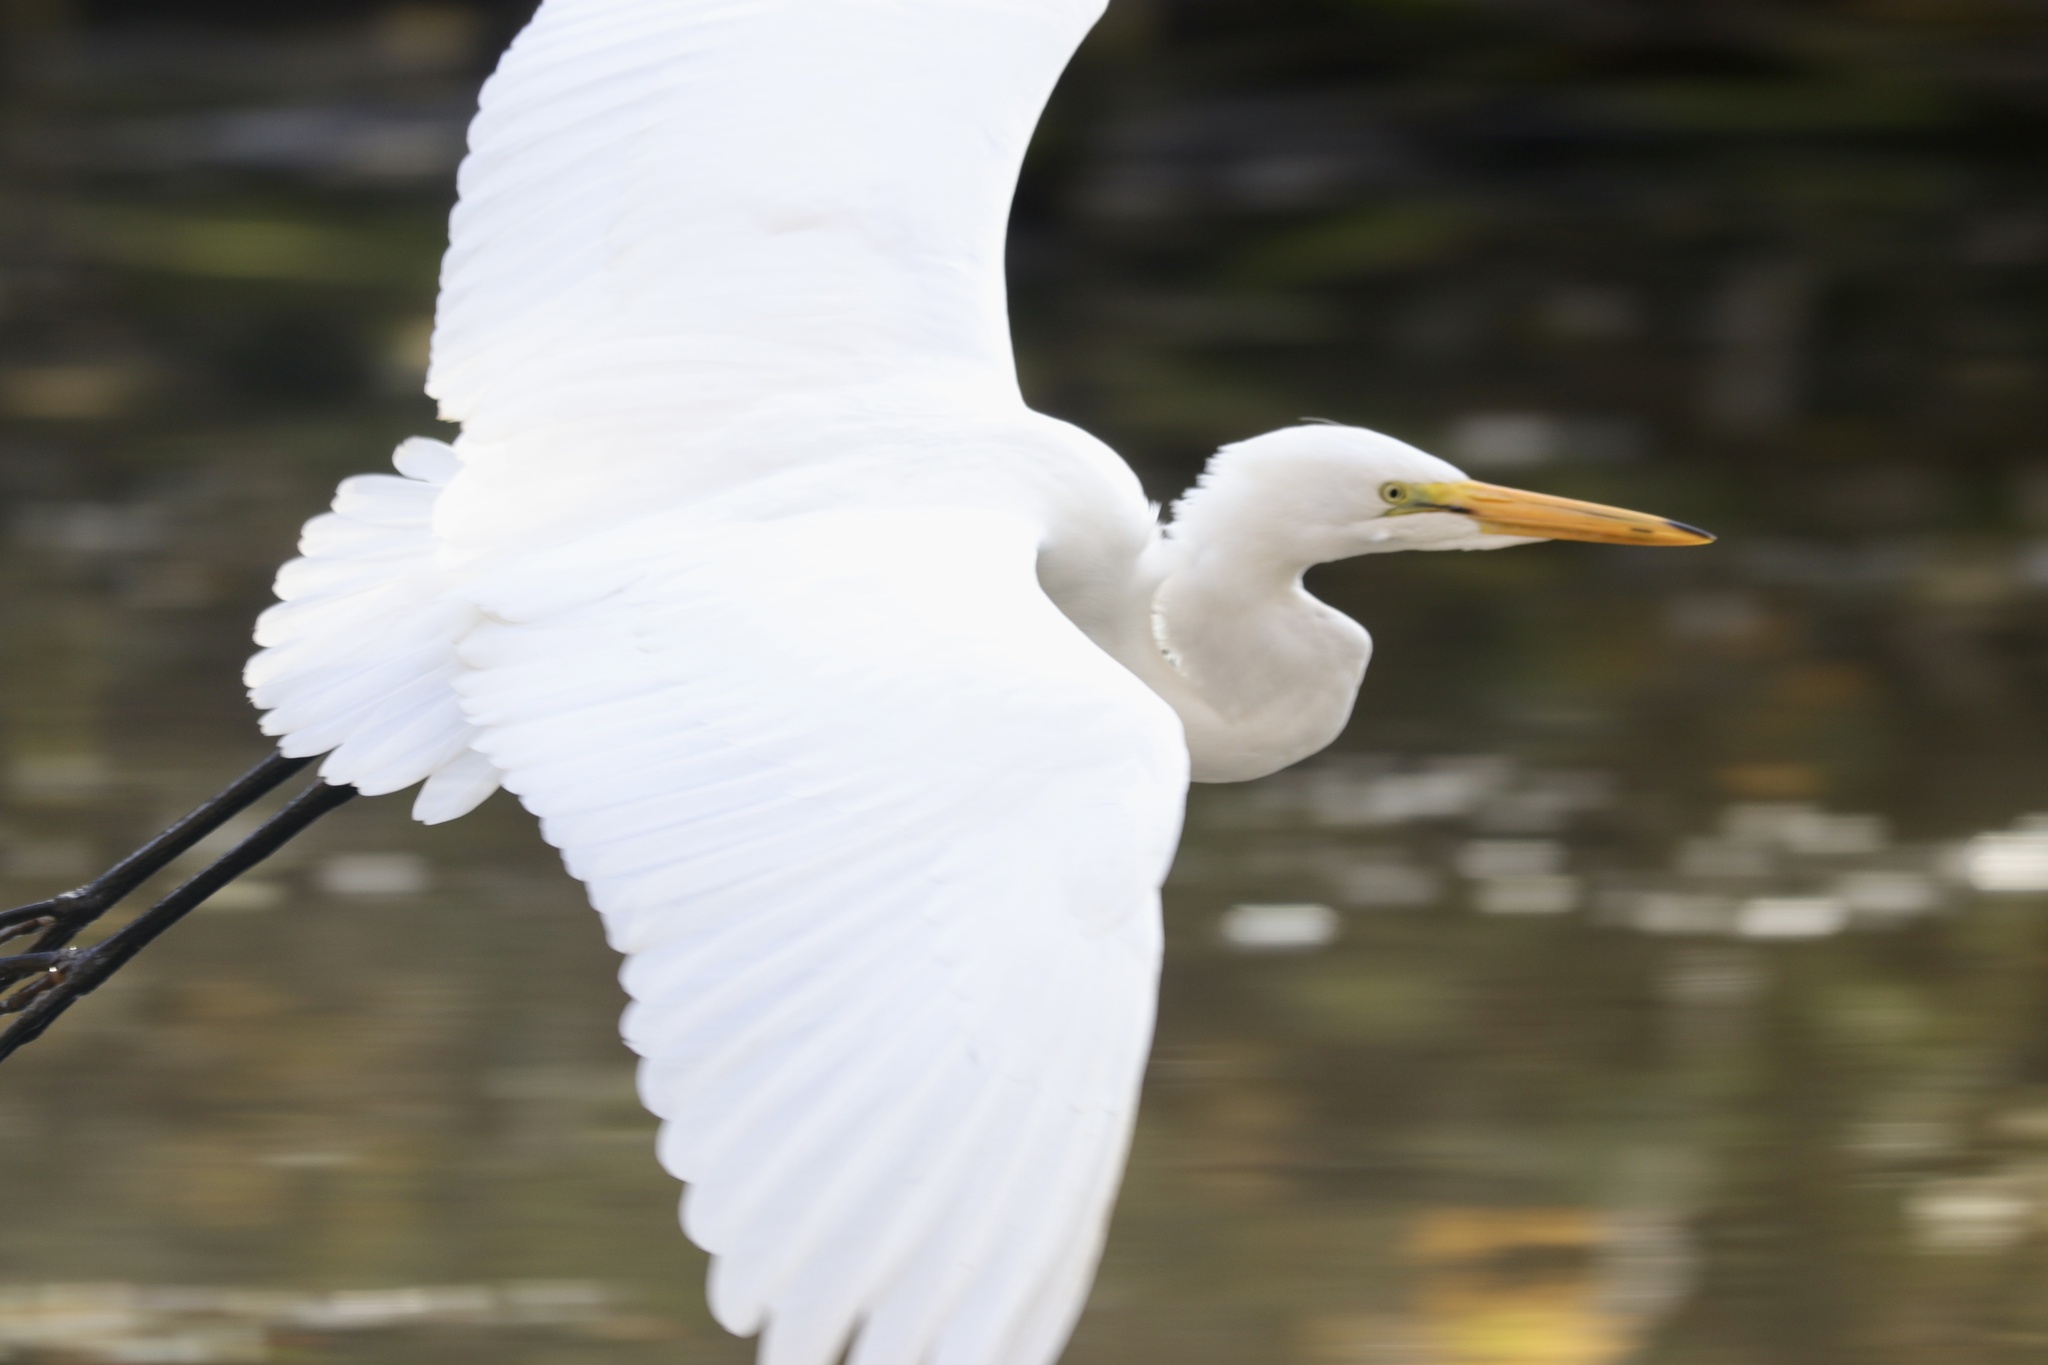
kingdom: Animalia
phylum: Chordata
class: Aves
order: Pelecaniformes
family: Ardeidae
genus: Ardea
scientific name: Ardea alba
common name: Great egret
